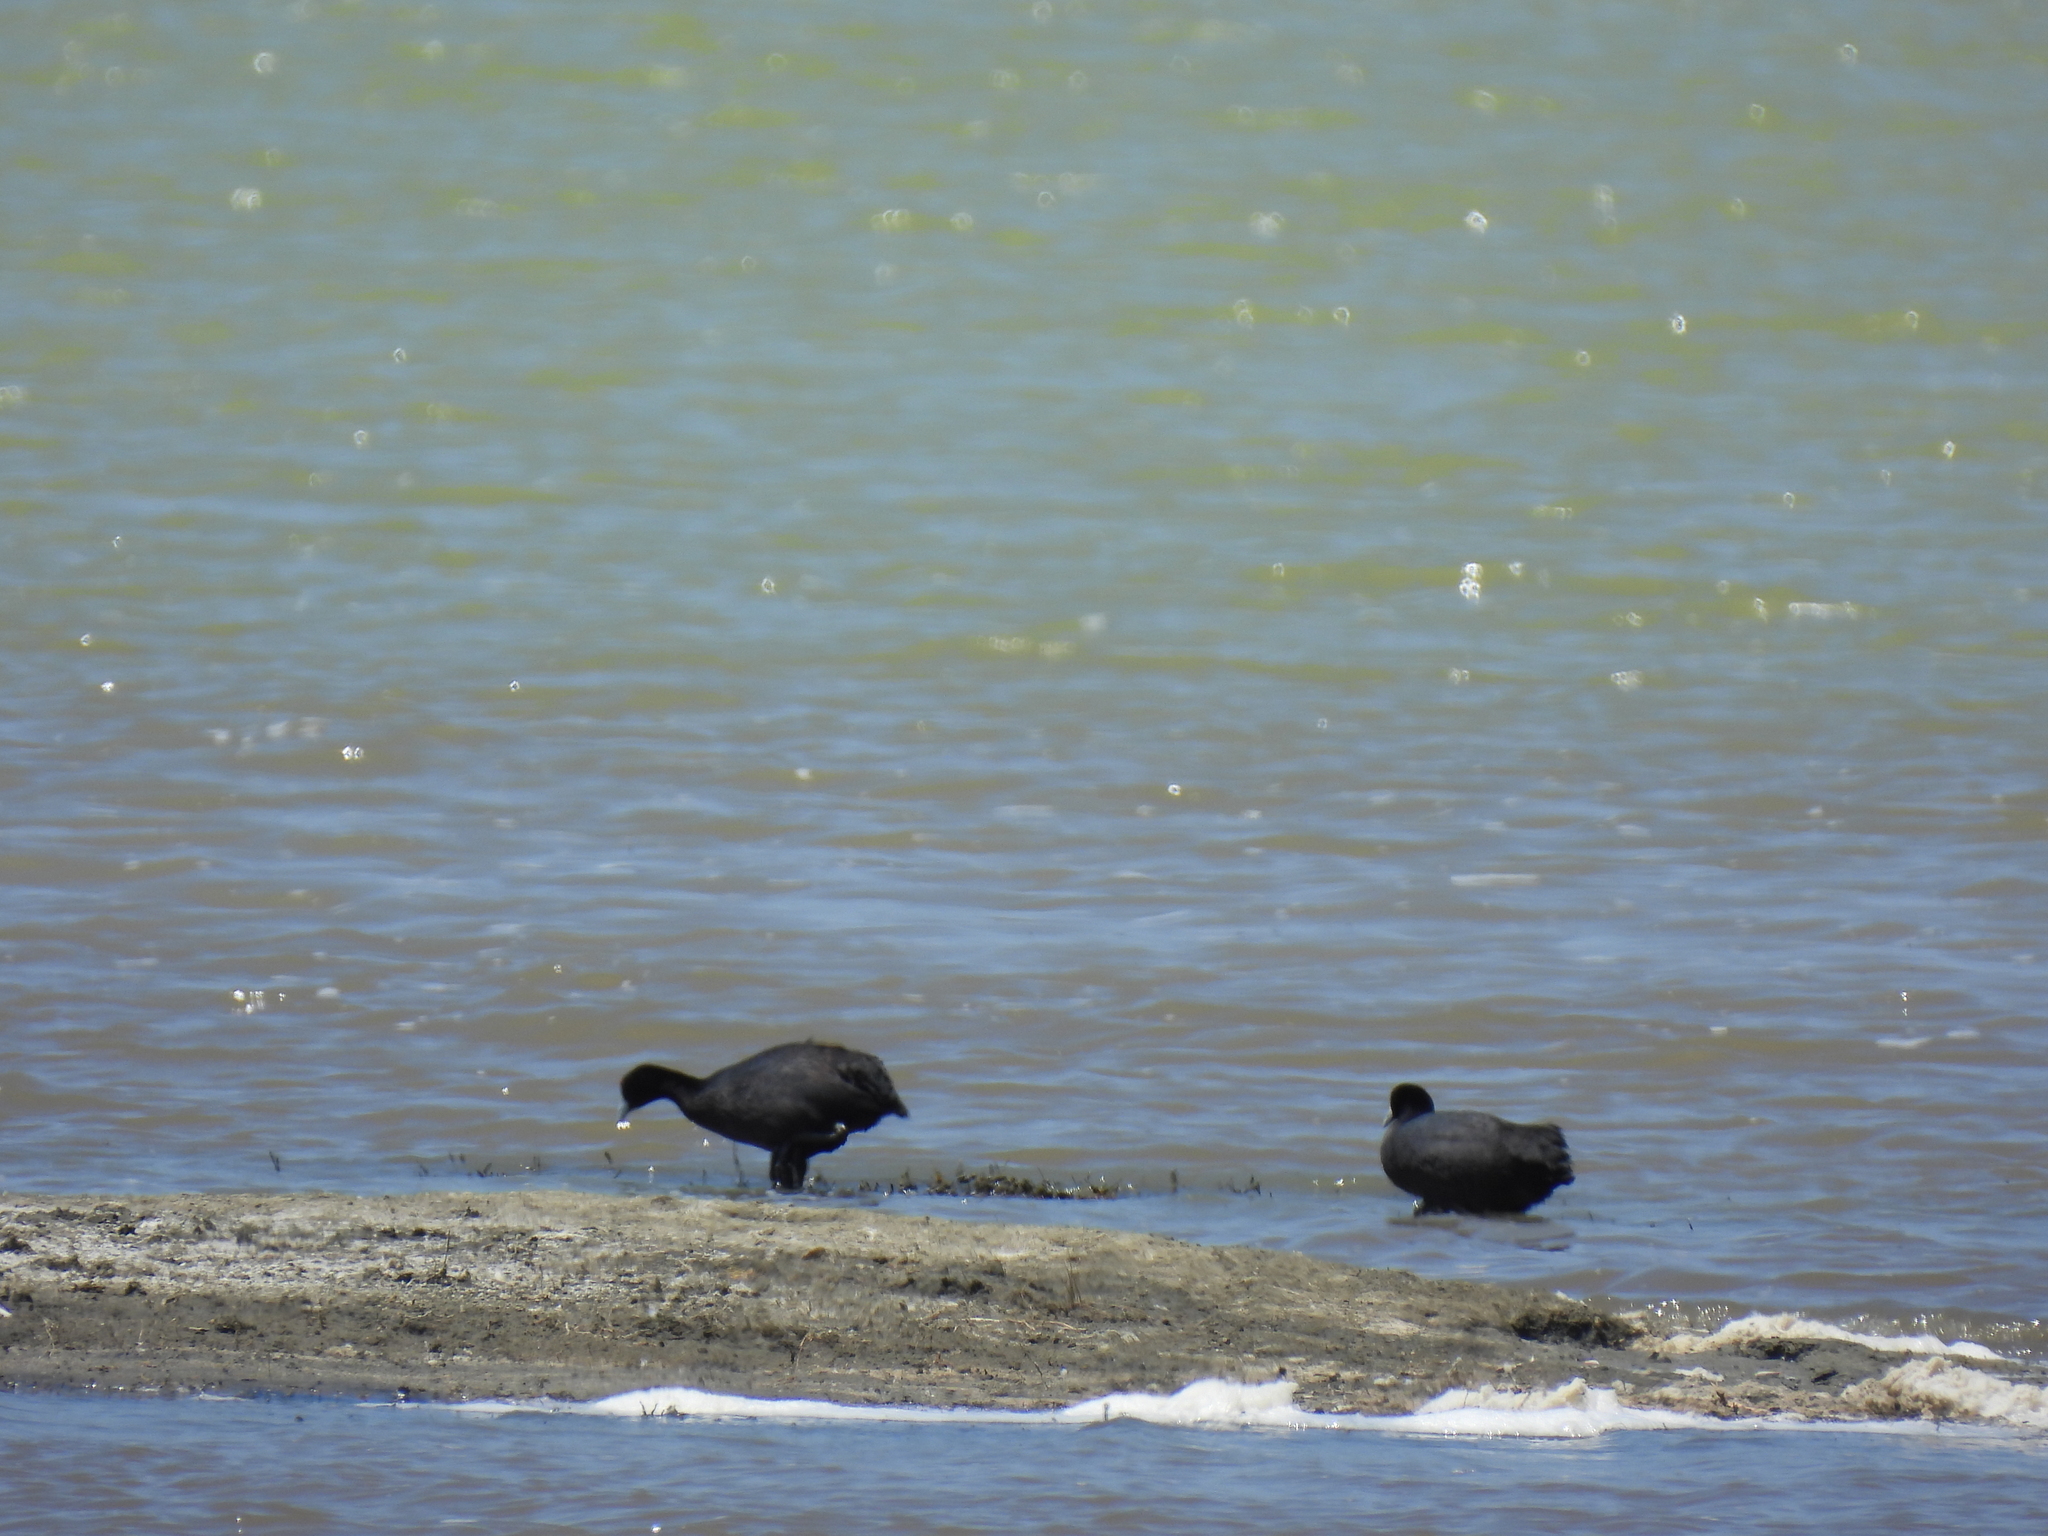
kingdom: Animalia
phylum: Chordata
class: Aves
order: Gruiformes
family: Rallidae
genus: Fulica
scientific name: Fulica cristata
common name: Red-knobbed coot
